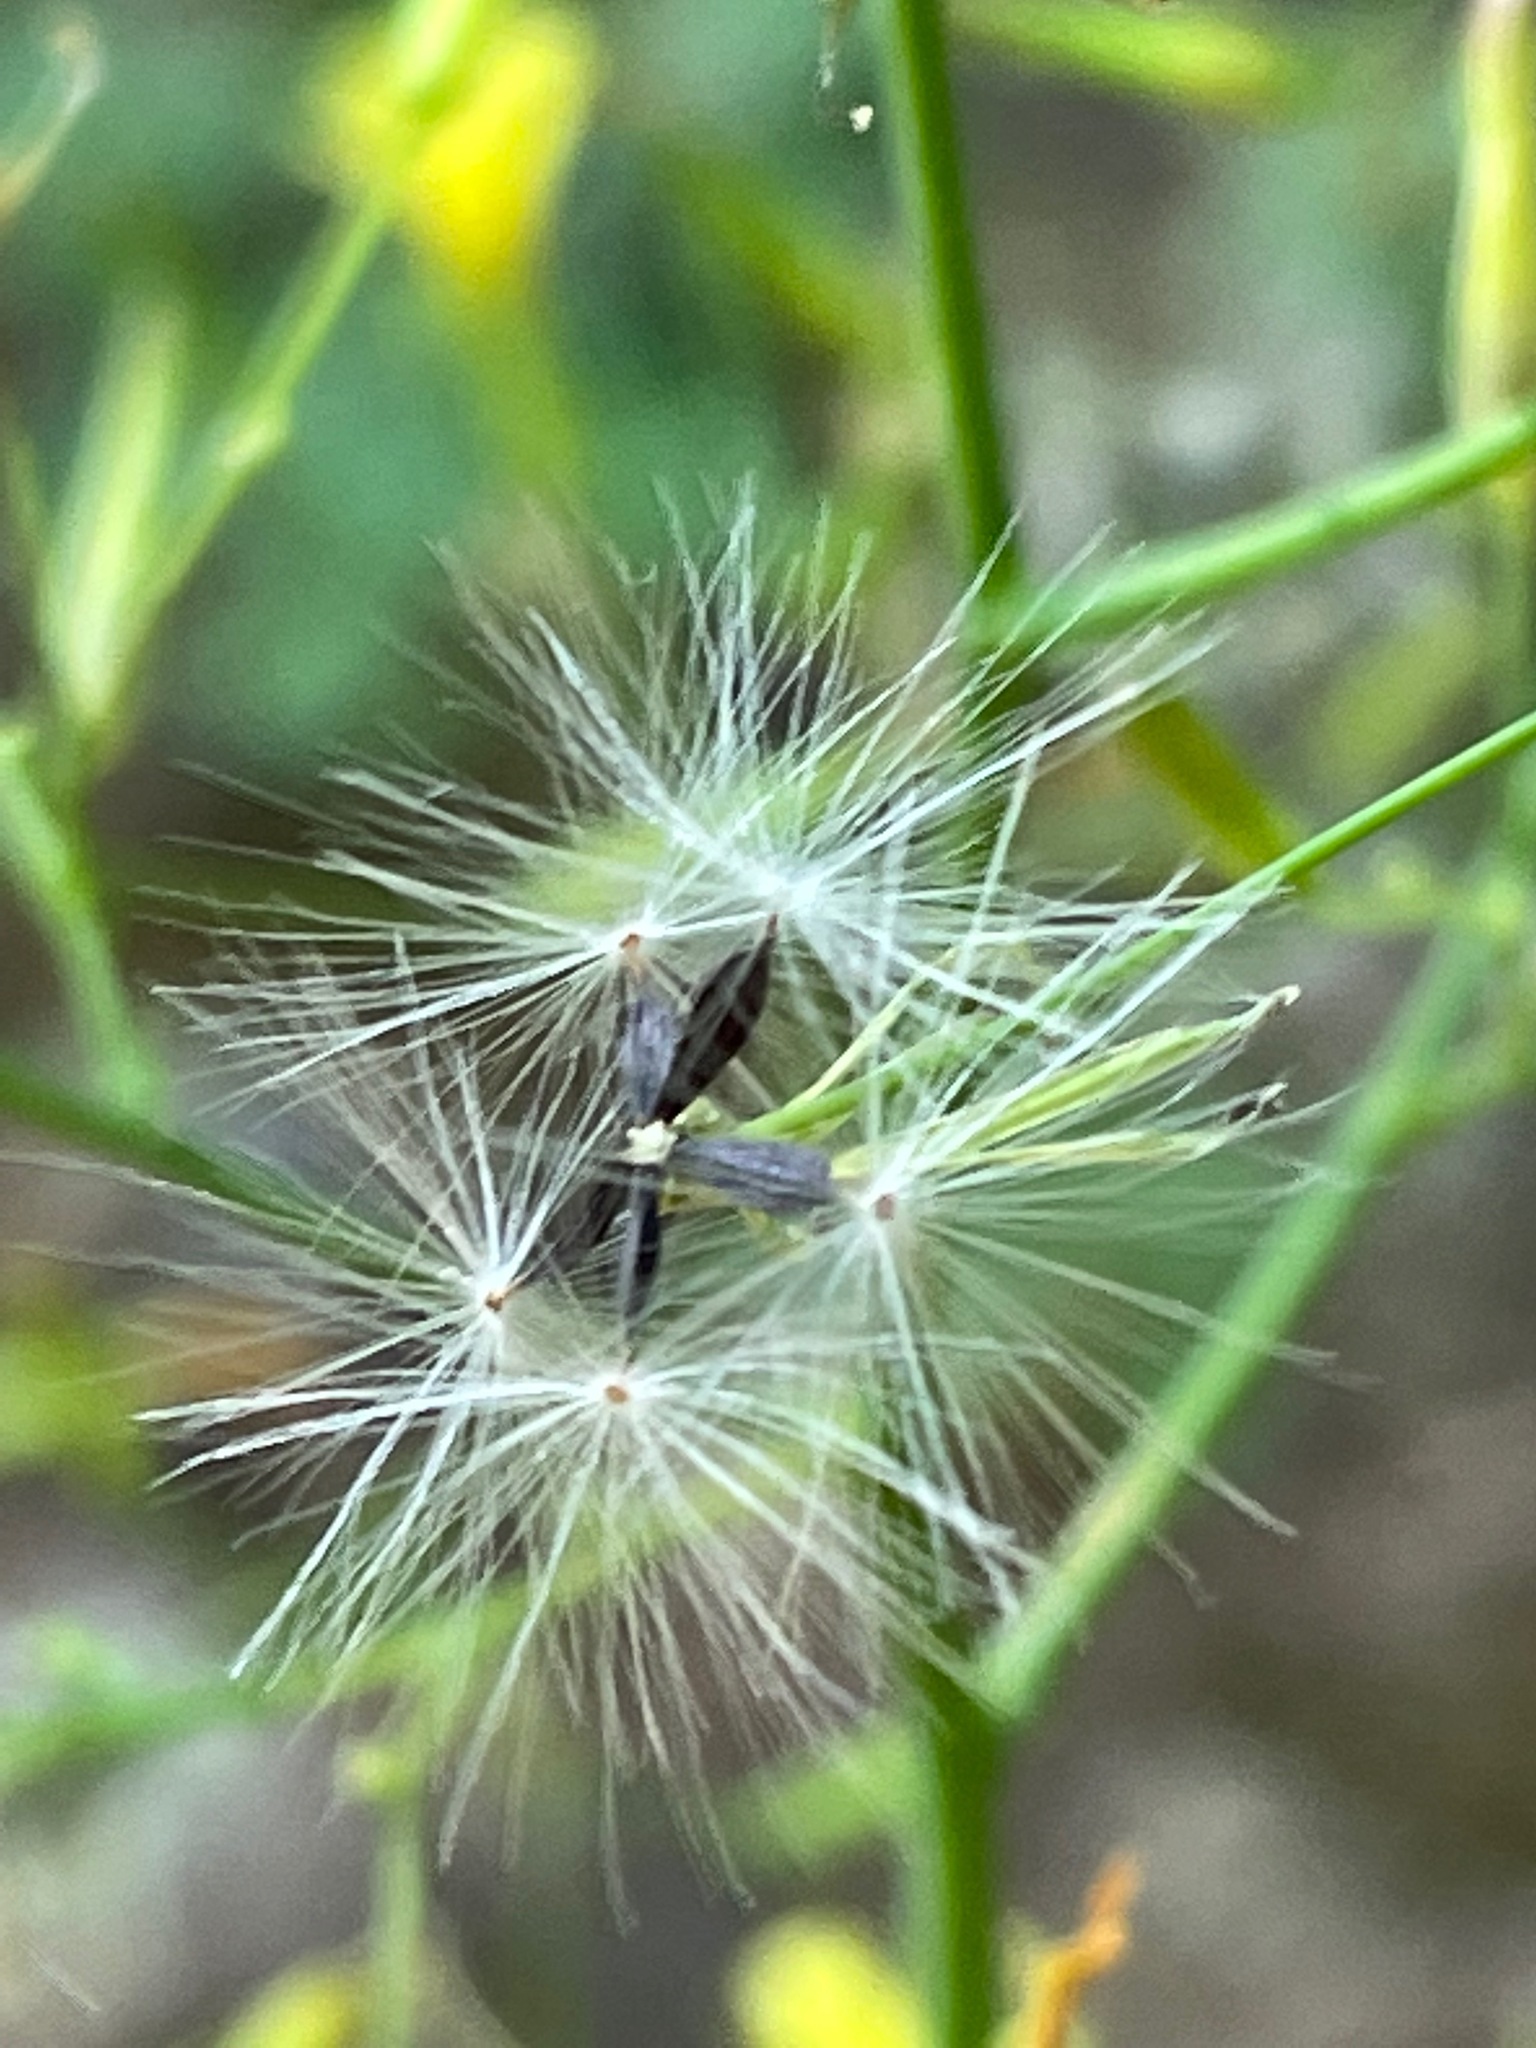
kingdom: Plantae
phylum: Tracheophyta
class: Magnoliopsida
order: Asterales
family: Asteraceae
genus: Mycelis
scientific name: Mycelis muralis
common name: Wall lettuce
